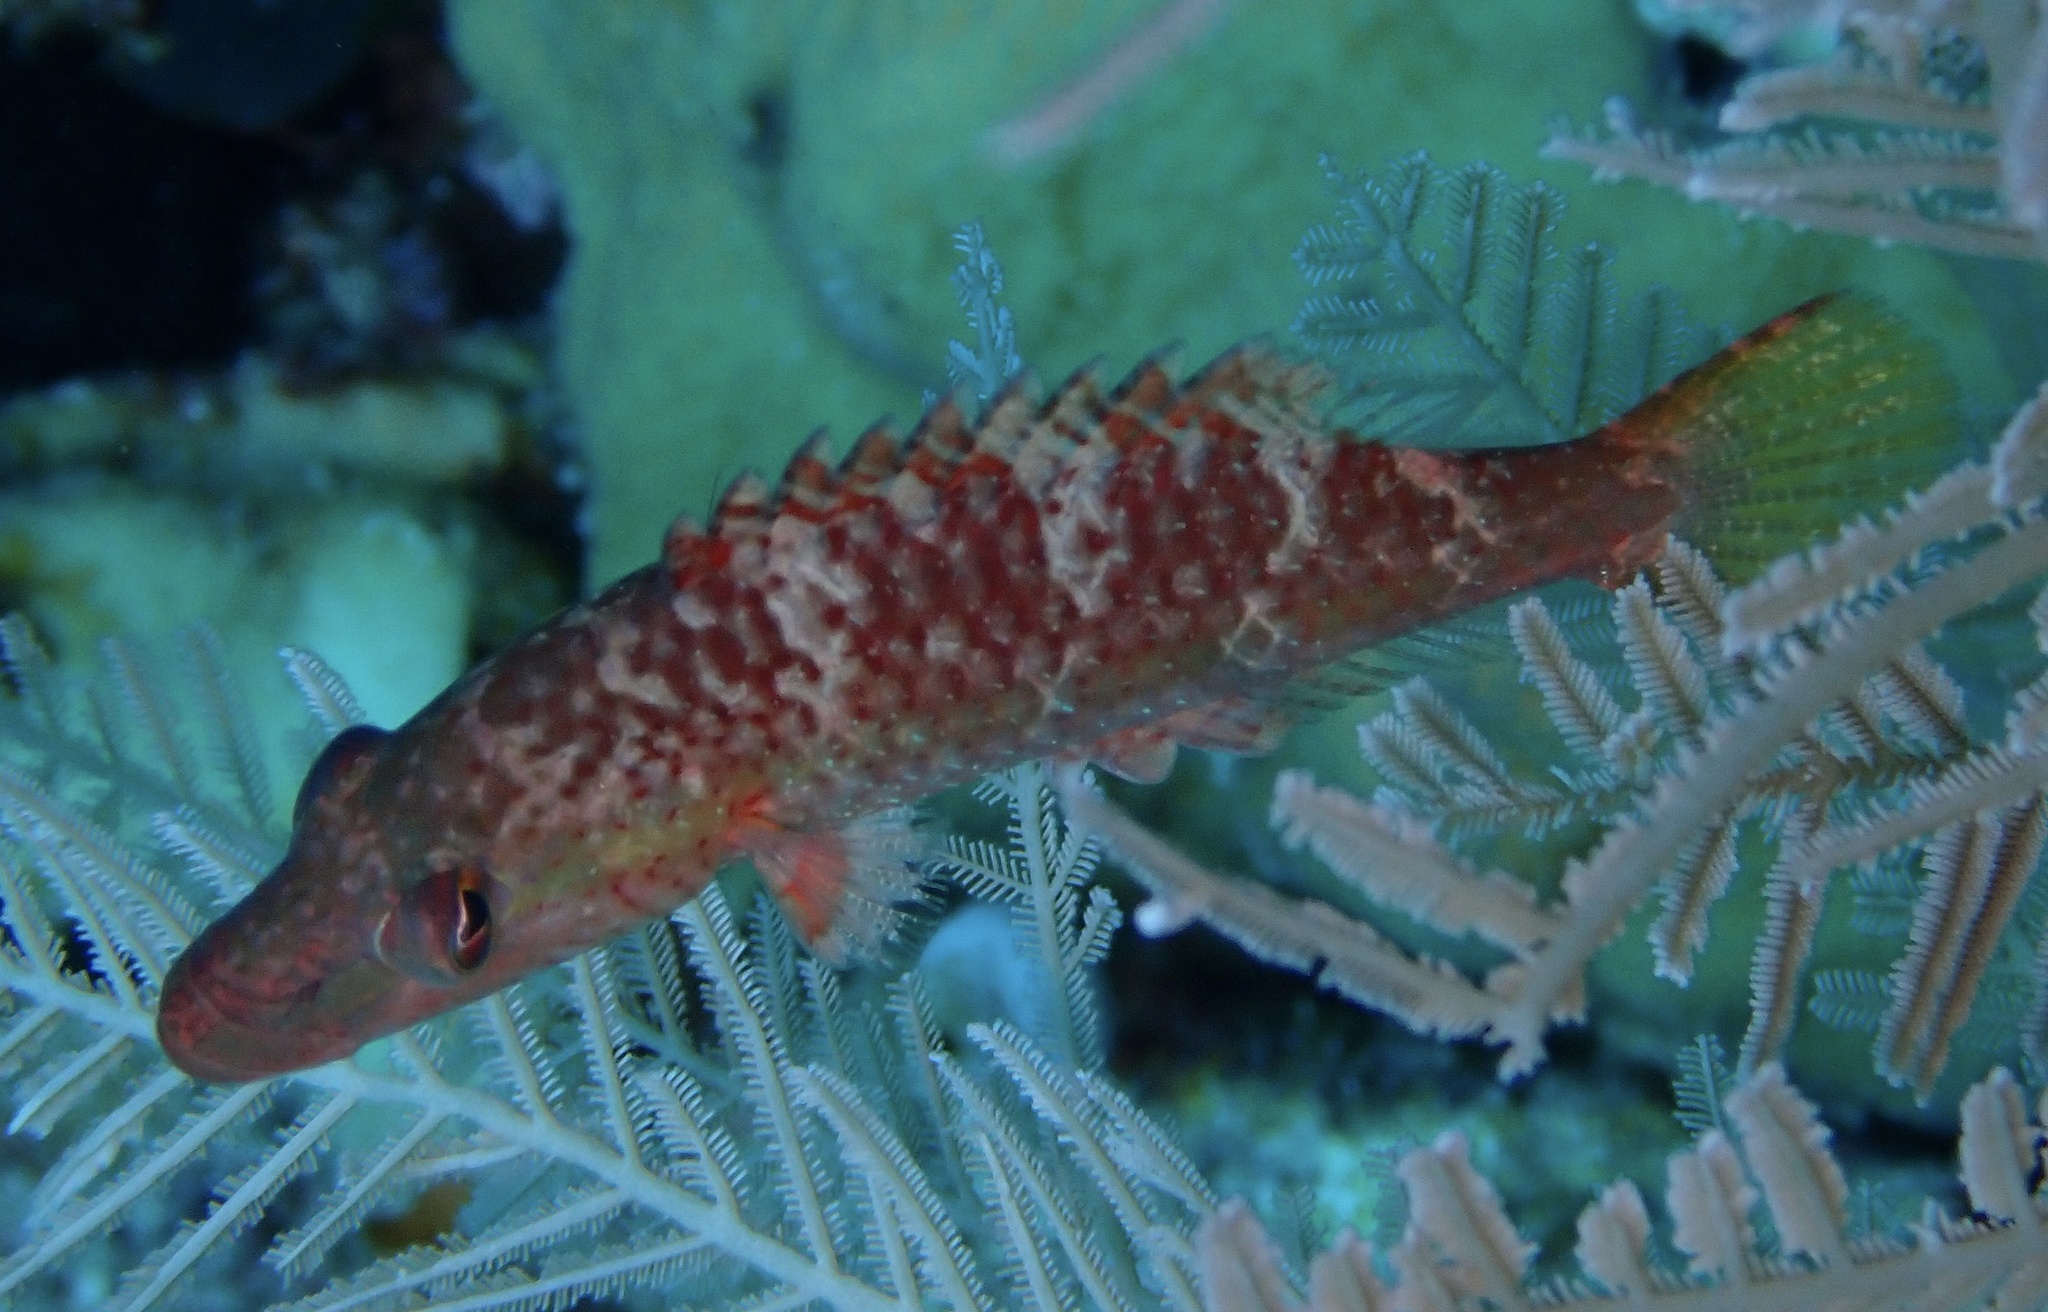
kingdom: Animalia
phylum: Chordata
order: Perciformes
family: Labridae
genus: Oxycheilinus
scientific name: Oxycheilinus digramma
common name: Bandcheek wrasse
